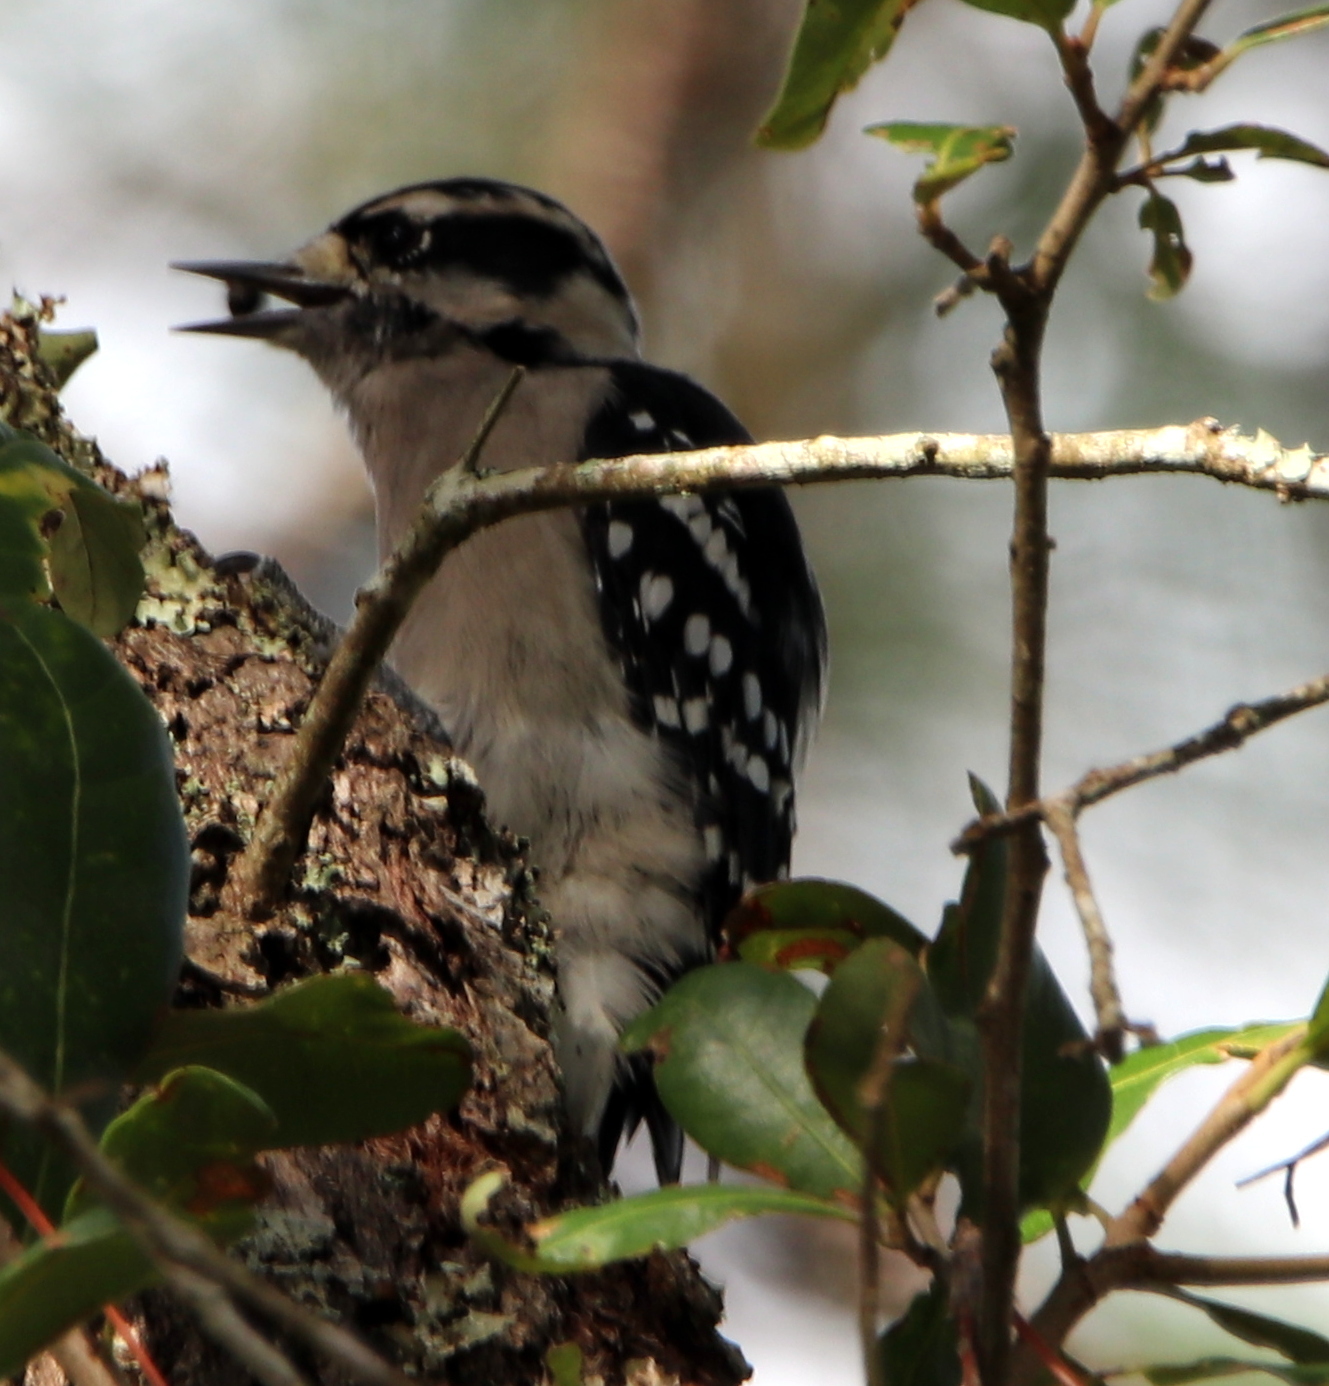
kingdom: Animalia
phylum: Chordata
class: Aves
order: Piciformes
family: Picidae
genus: Dryobates
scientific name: Dryobates pubescens
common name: Downy woodpecker
